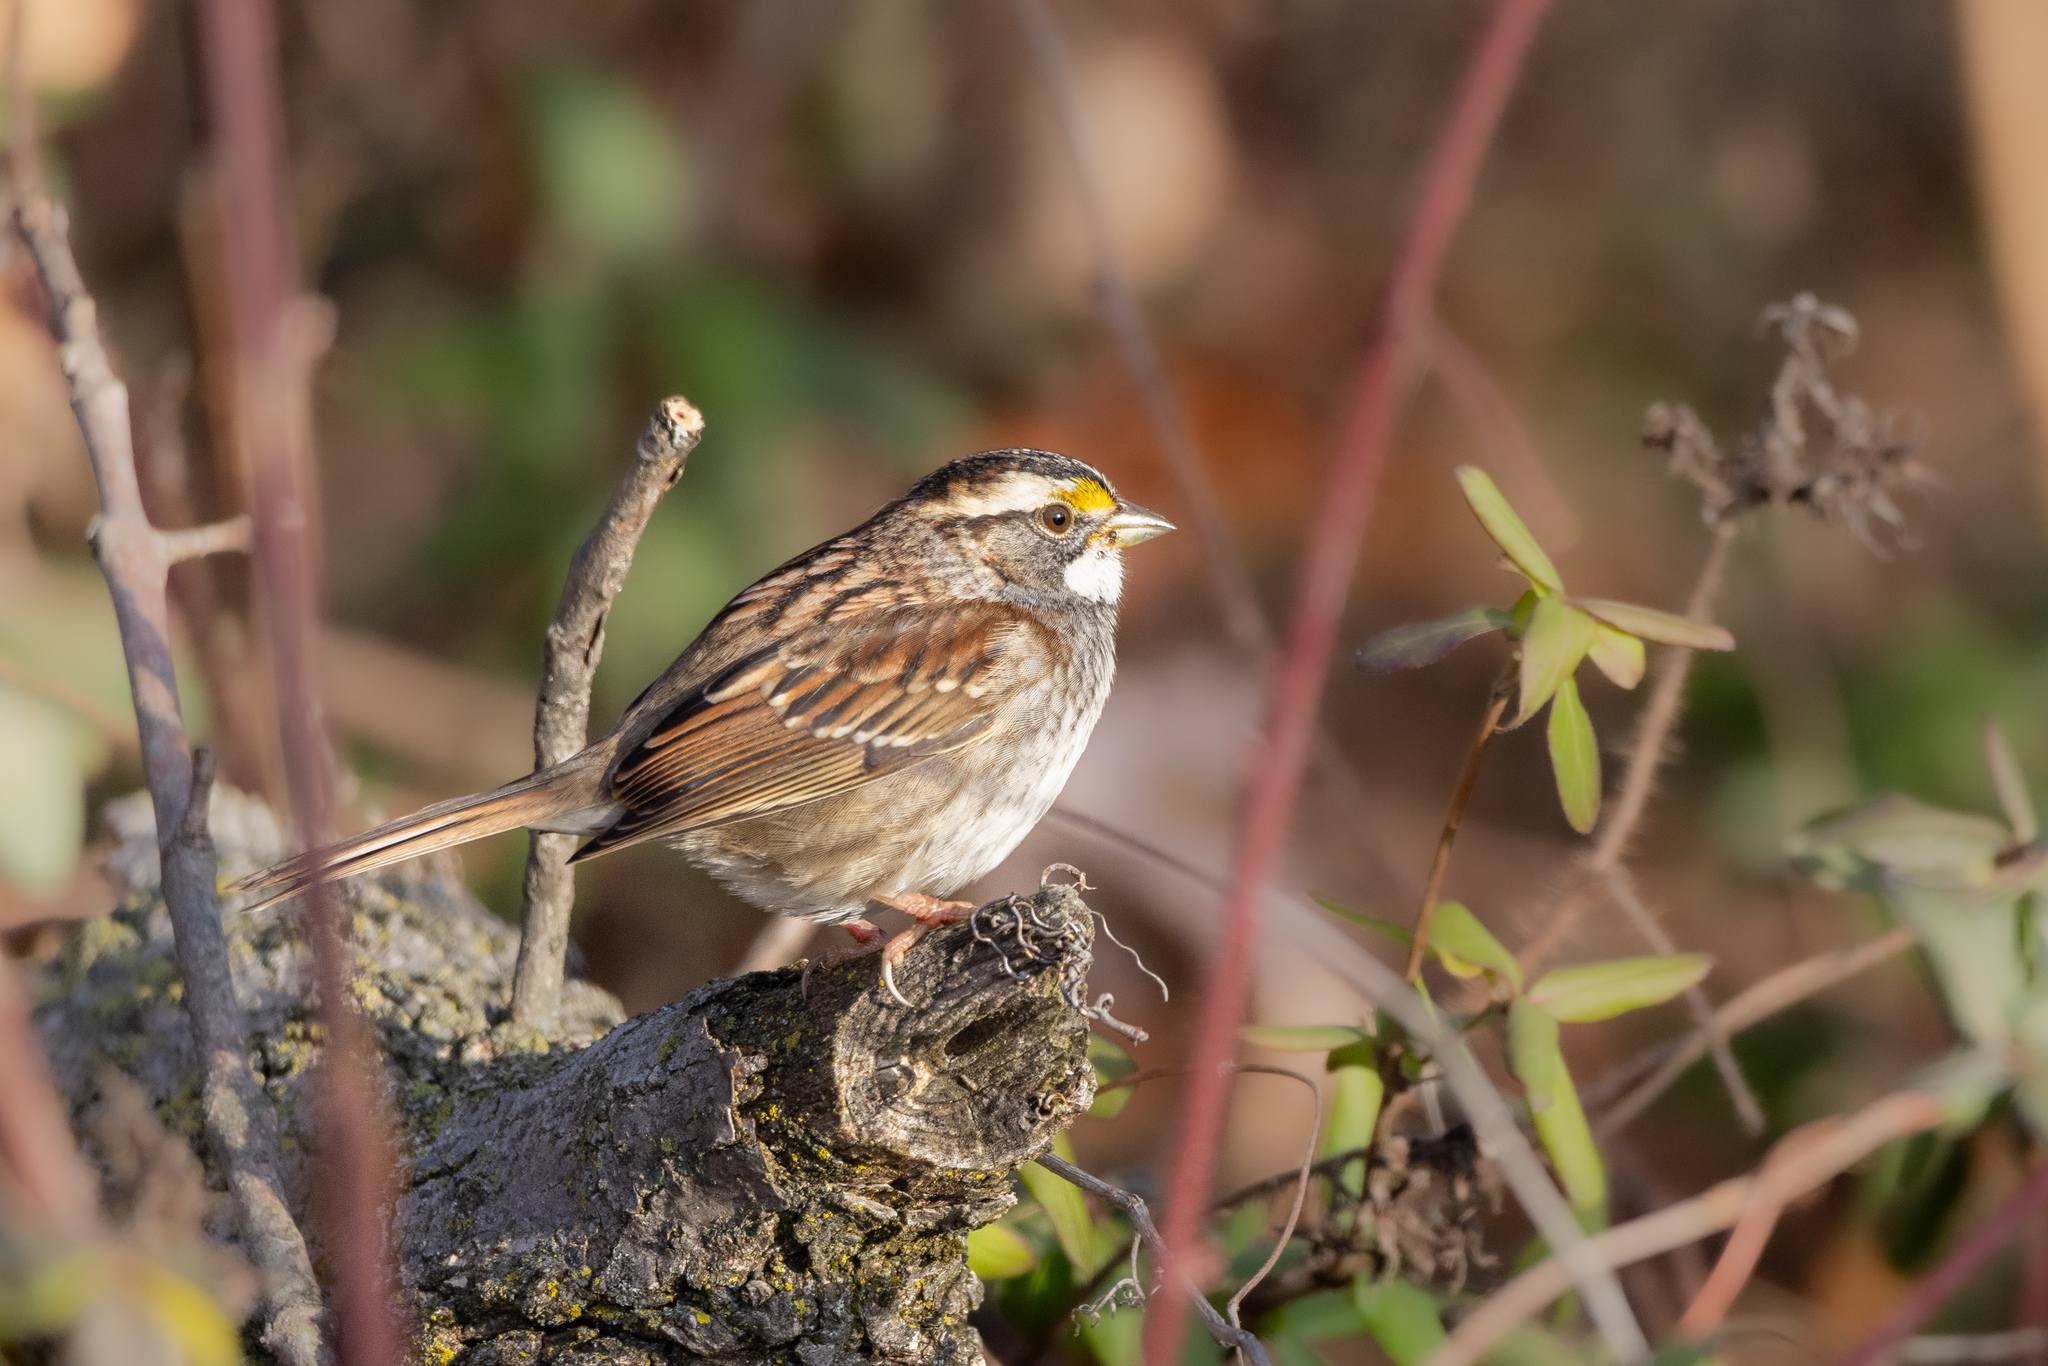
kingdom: Animalia
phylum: Chordata
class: Aves
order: Passeriformes
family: Passerellidae
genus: Zonotrichia
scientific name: Zonotrichia albicollis
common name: White-throated sparrow
